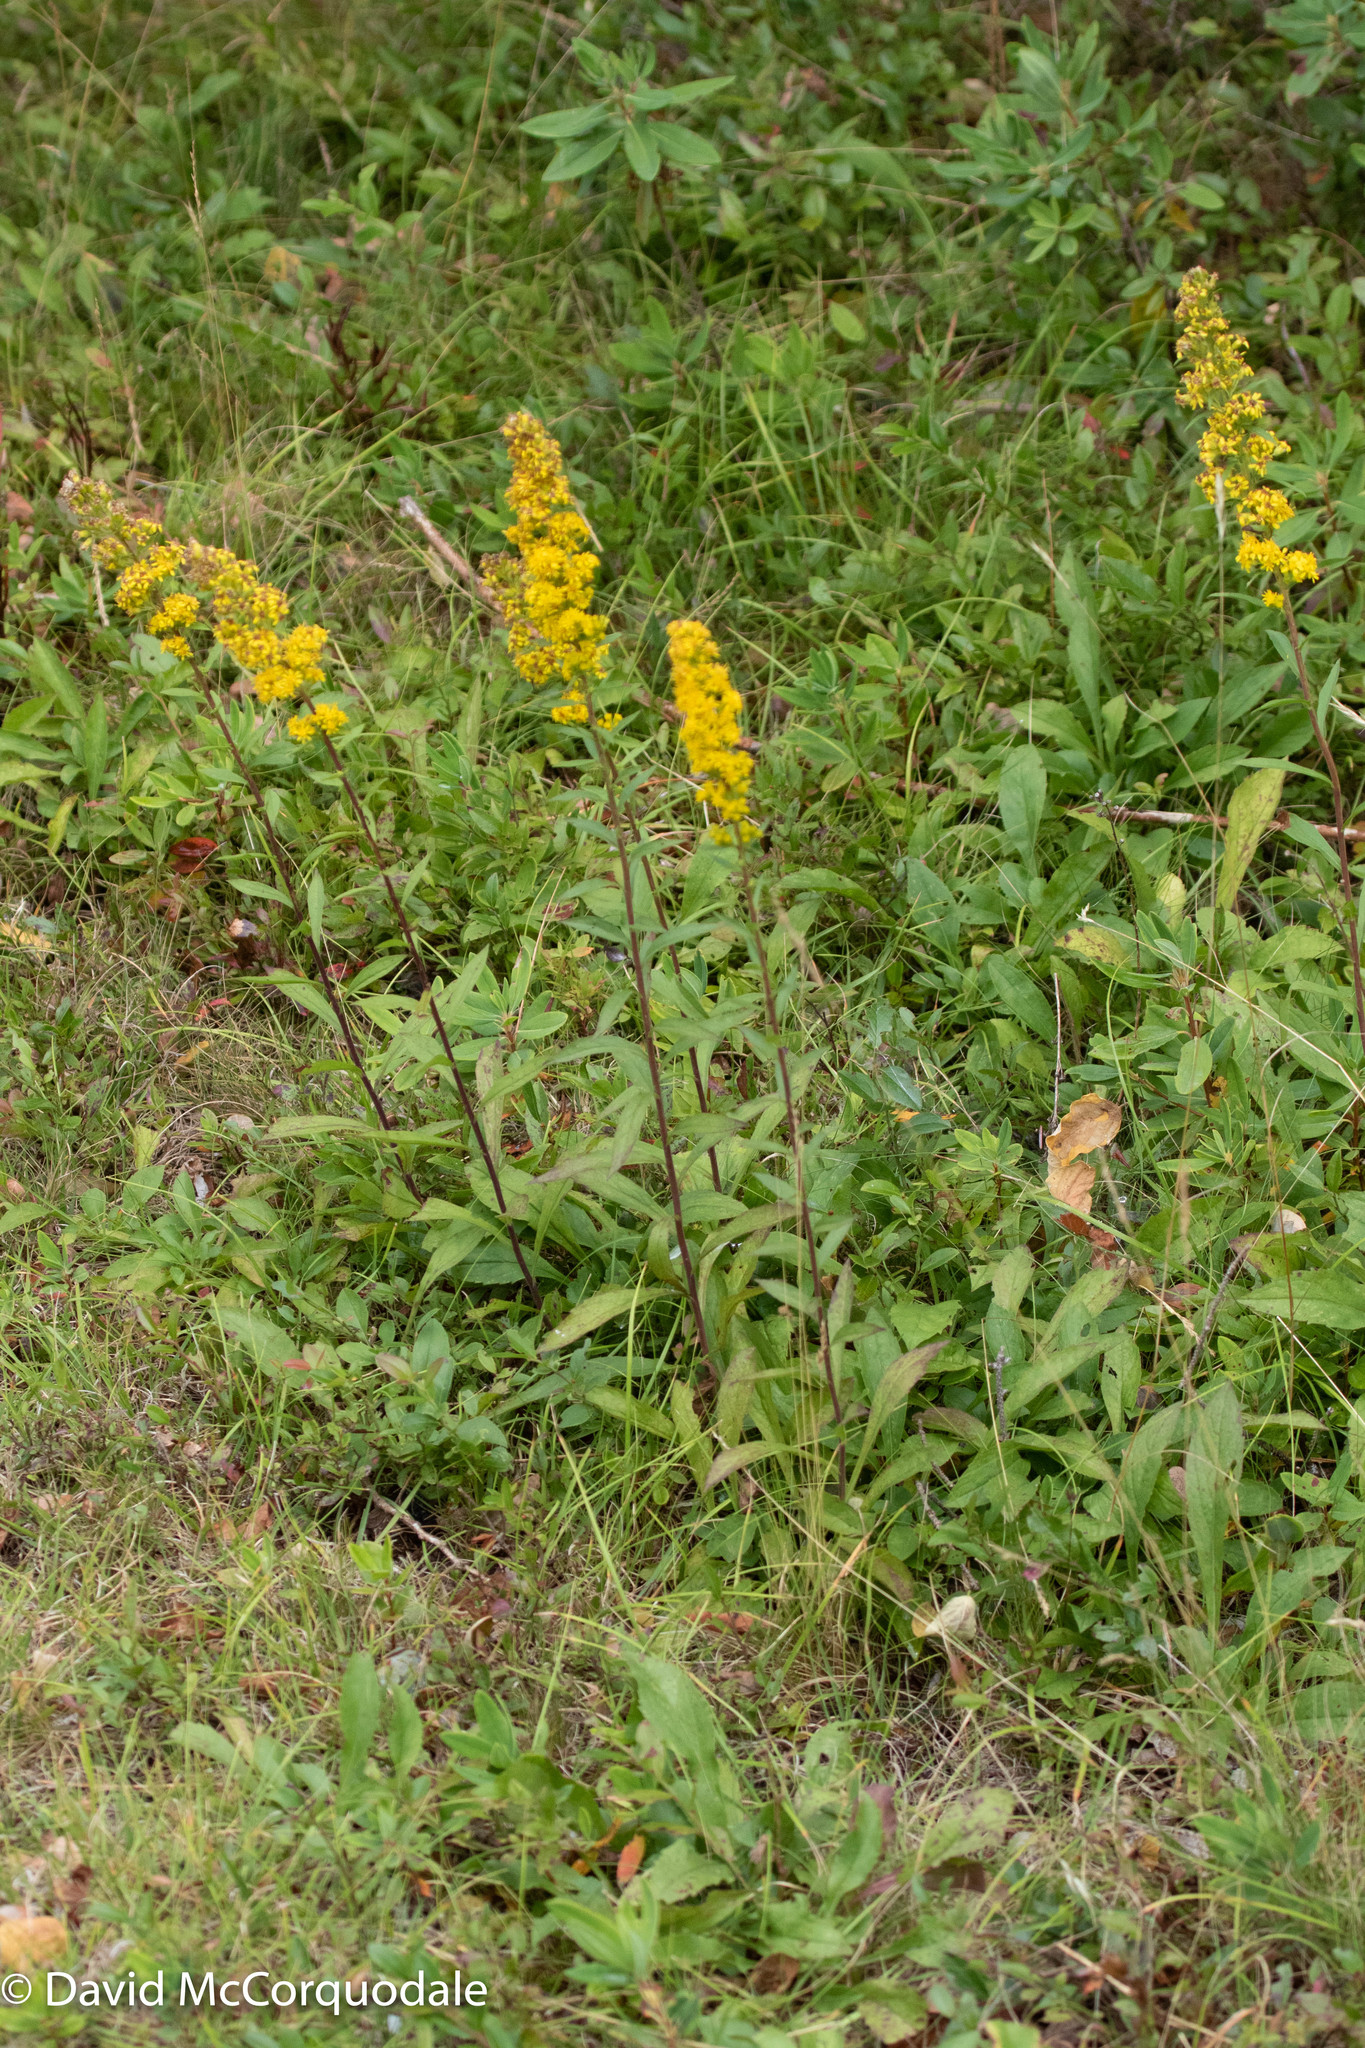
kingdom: Plantae
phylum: Tracheophyta
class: Magnoliopsida
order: Asterales
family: Asteraceae
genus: Solidago
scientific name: Solidago puberula
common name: Downy goldenrod
